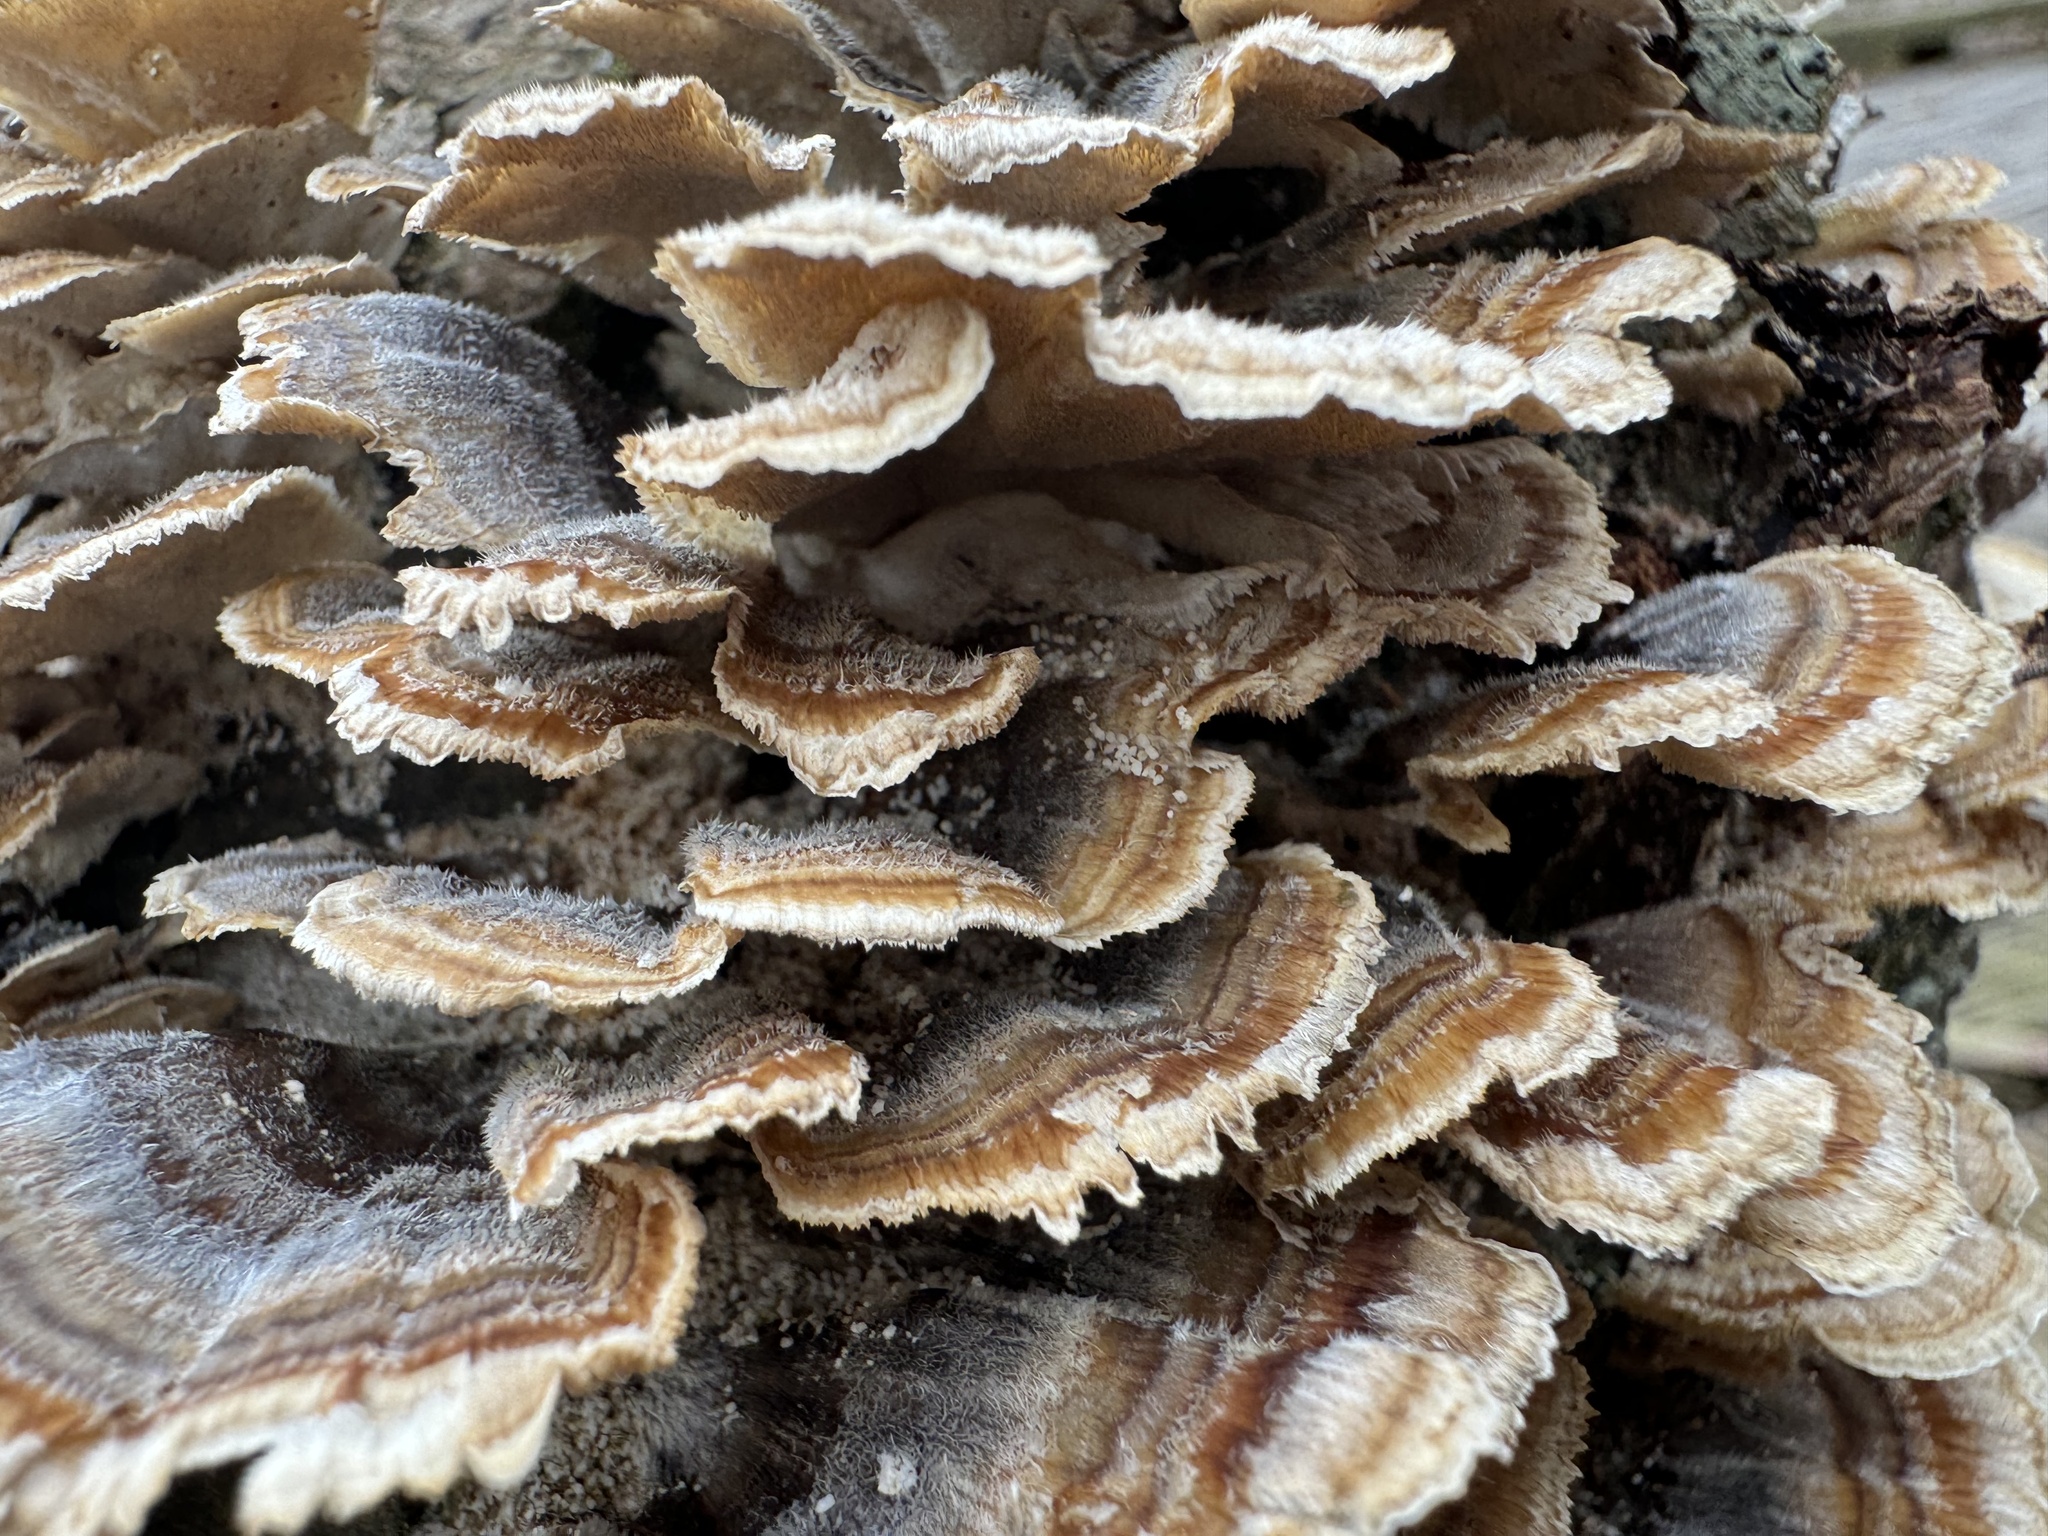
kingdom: Fungi
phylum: Basidiomycota
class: Agaricomycetes
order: Polyporales
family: Polyporaceae
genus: Trametes
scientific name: Trametes versicolor
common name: Turkeytail
